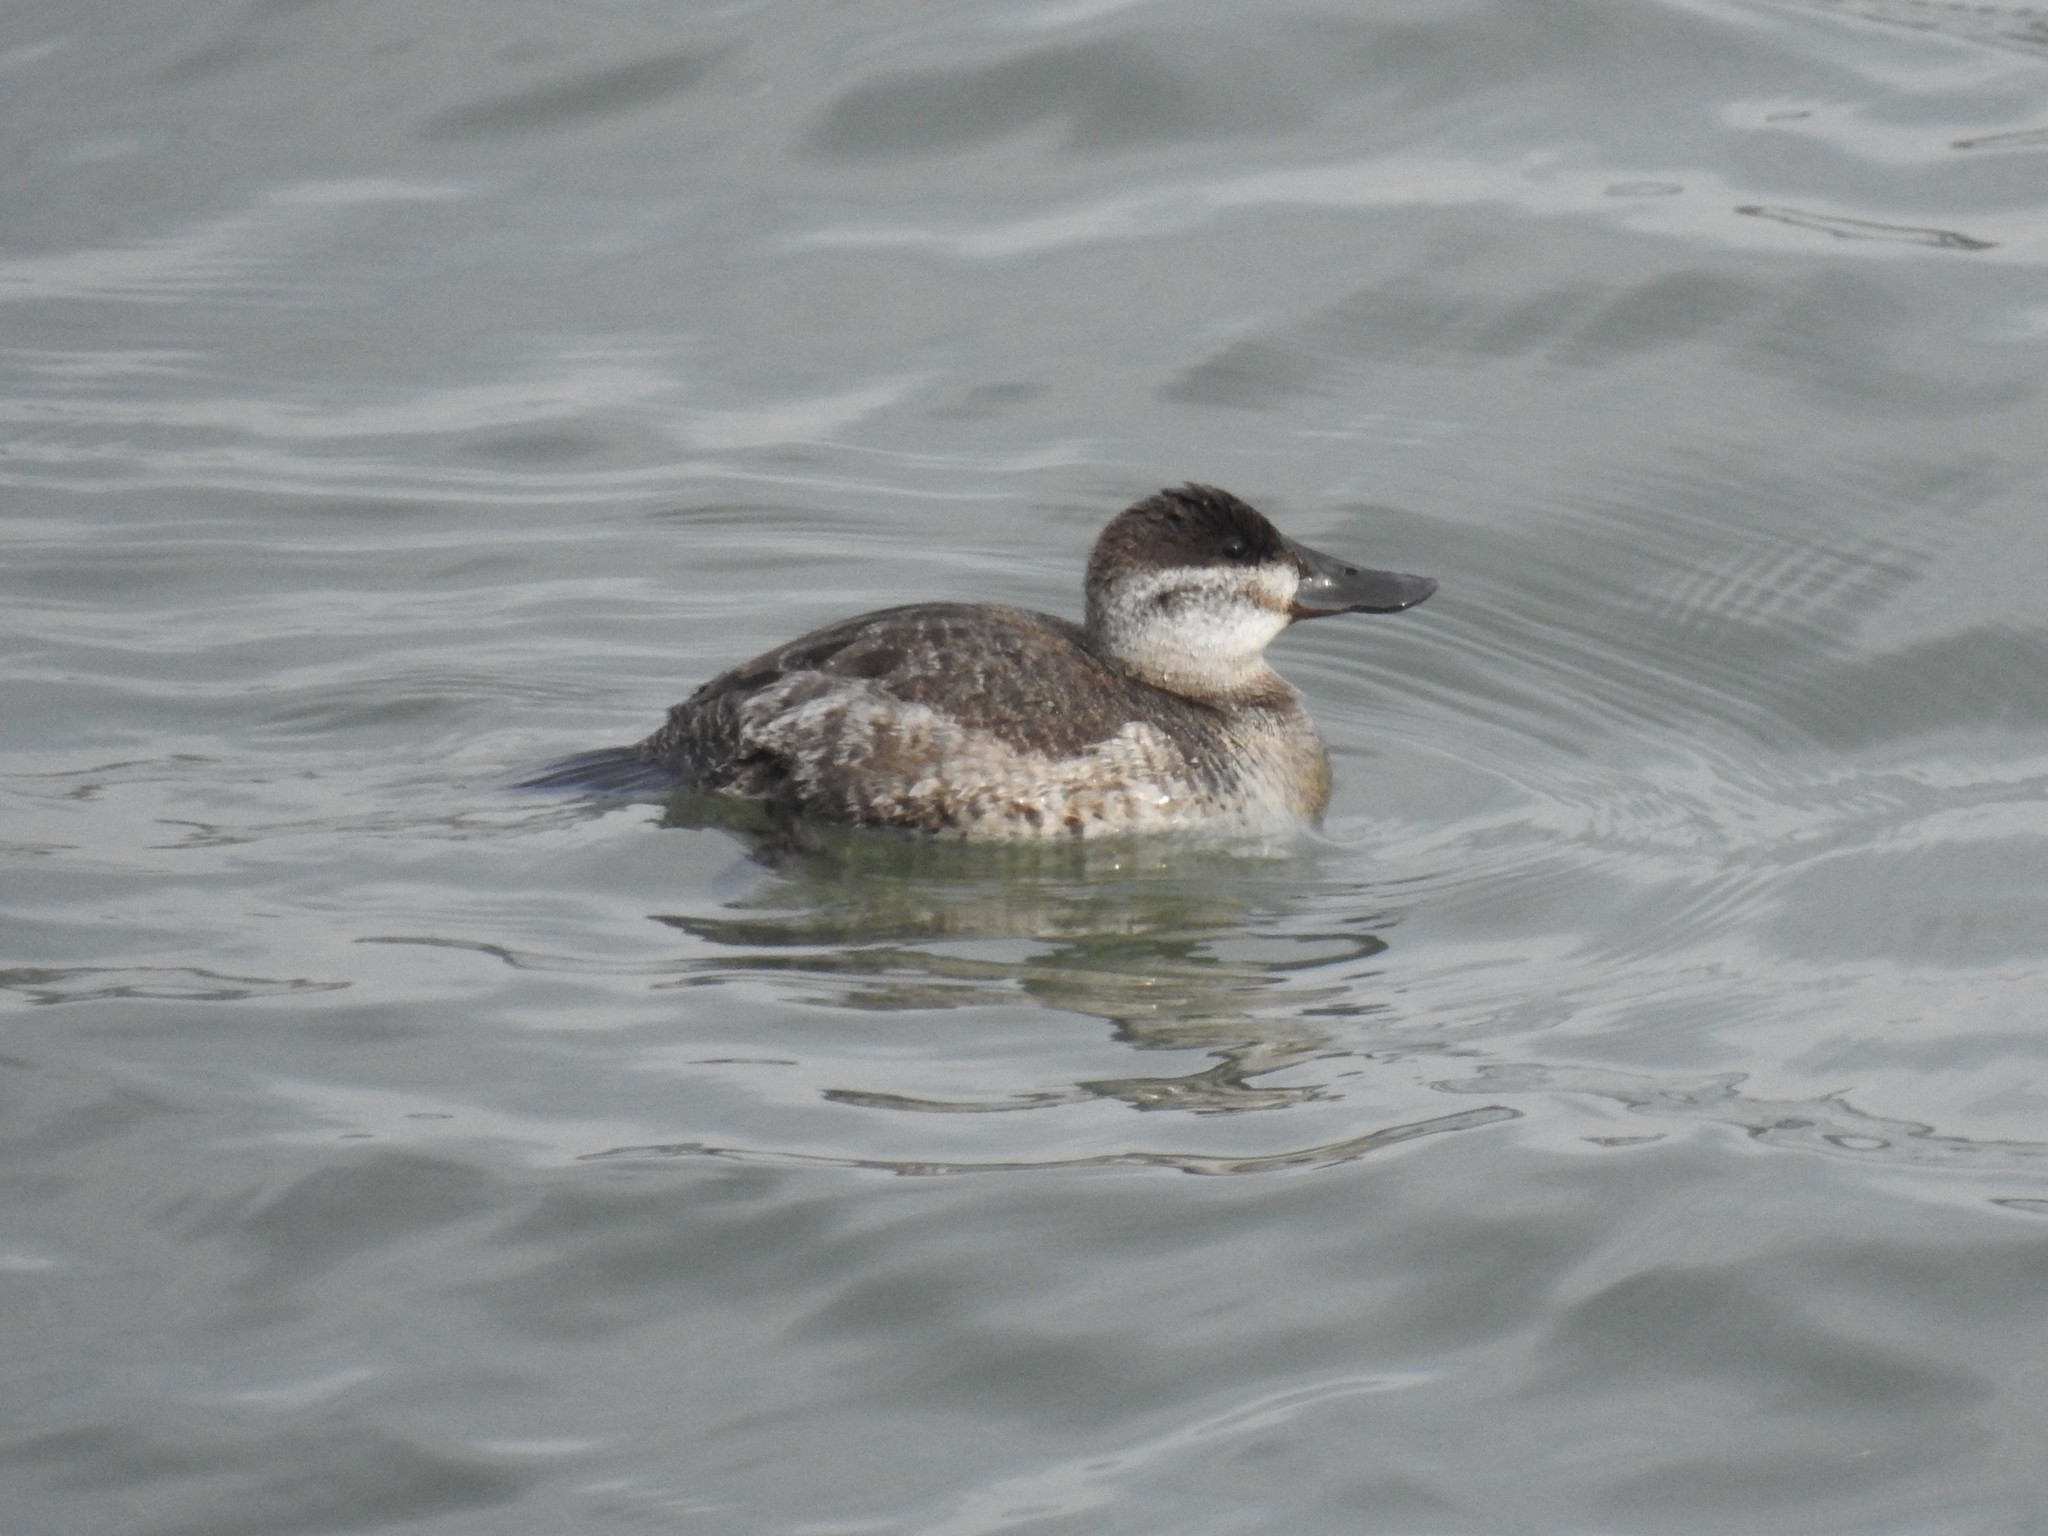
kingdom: Animalia
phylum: Chordata
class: Aves
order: Anseriformes
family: Anatidae
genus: Oxyura
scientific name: Oxyura jamaicensis
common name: Ruddy duck
